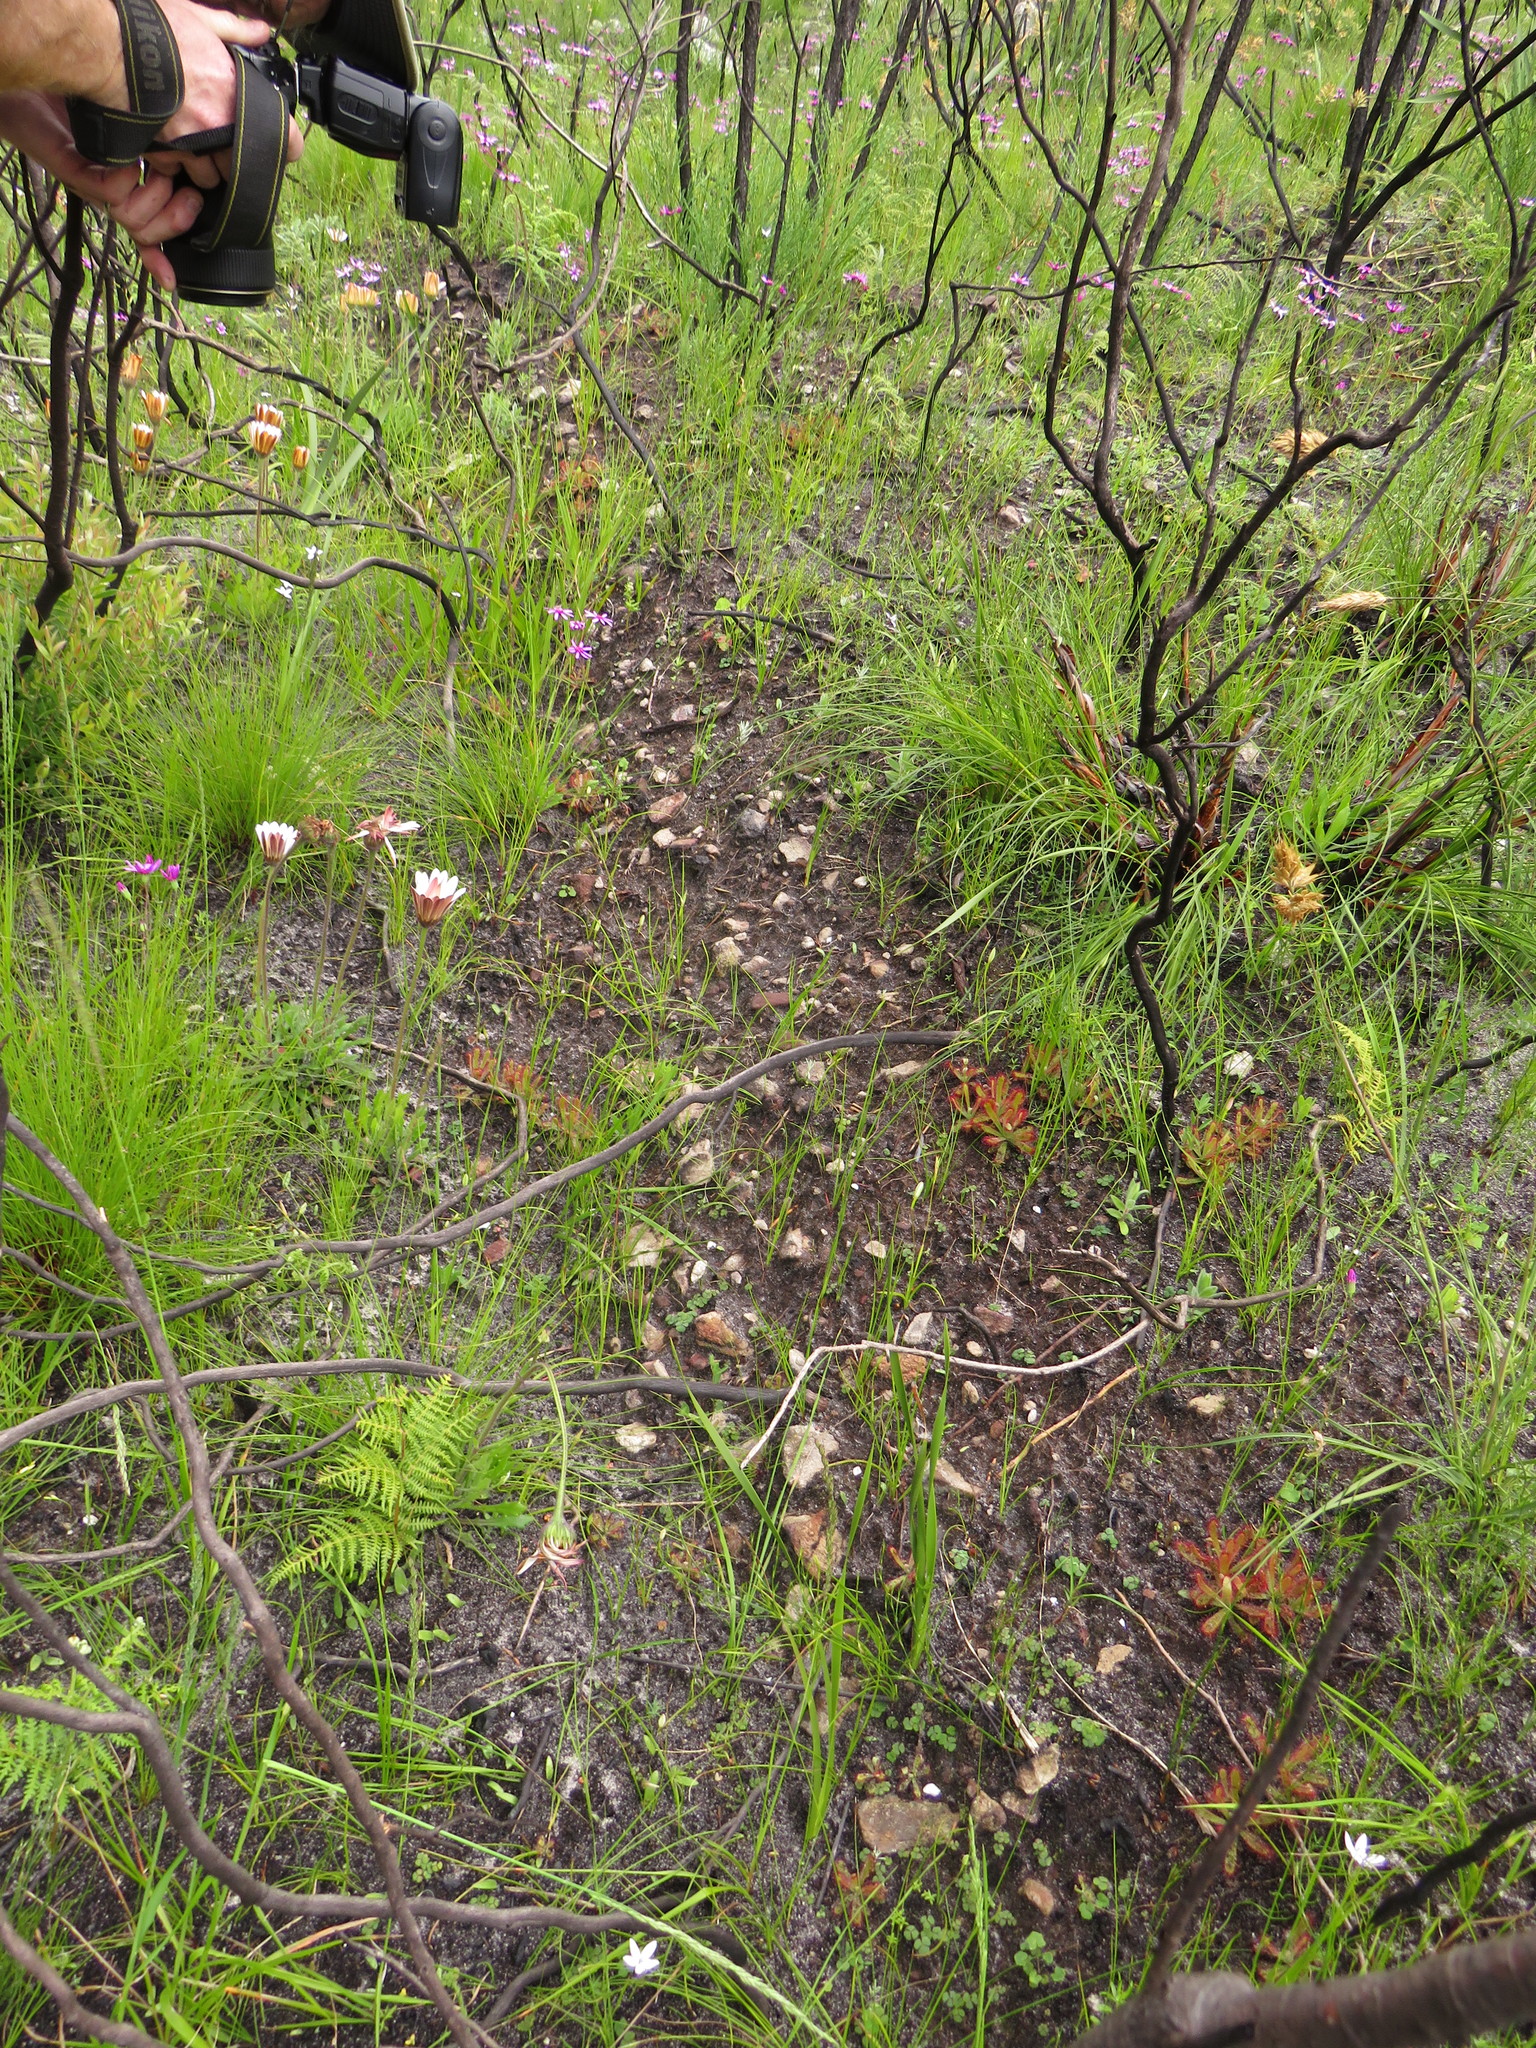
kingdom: Plantae
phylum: Tracheophyta
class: Magnoliopsida
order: Caryophyllales
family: Droseraceae
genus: Drosera
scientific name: Drosera ericgreenii
